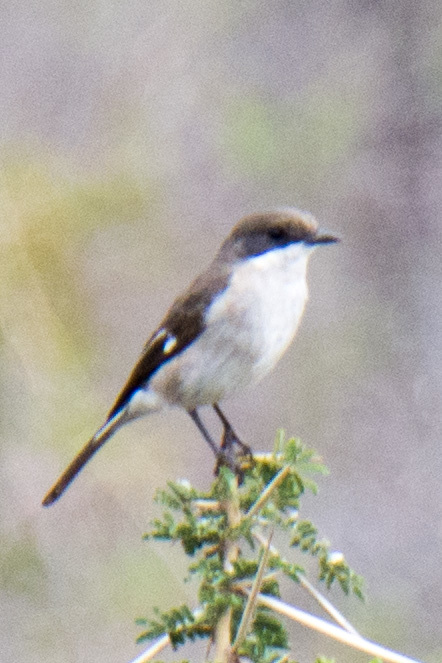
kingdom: Animalia
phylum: Chordata
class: Aves
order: Passeriformes
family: Muscicapidae
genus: Sigelus
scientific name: Sigelus silens
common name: Fiscal flycatcher
